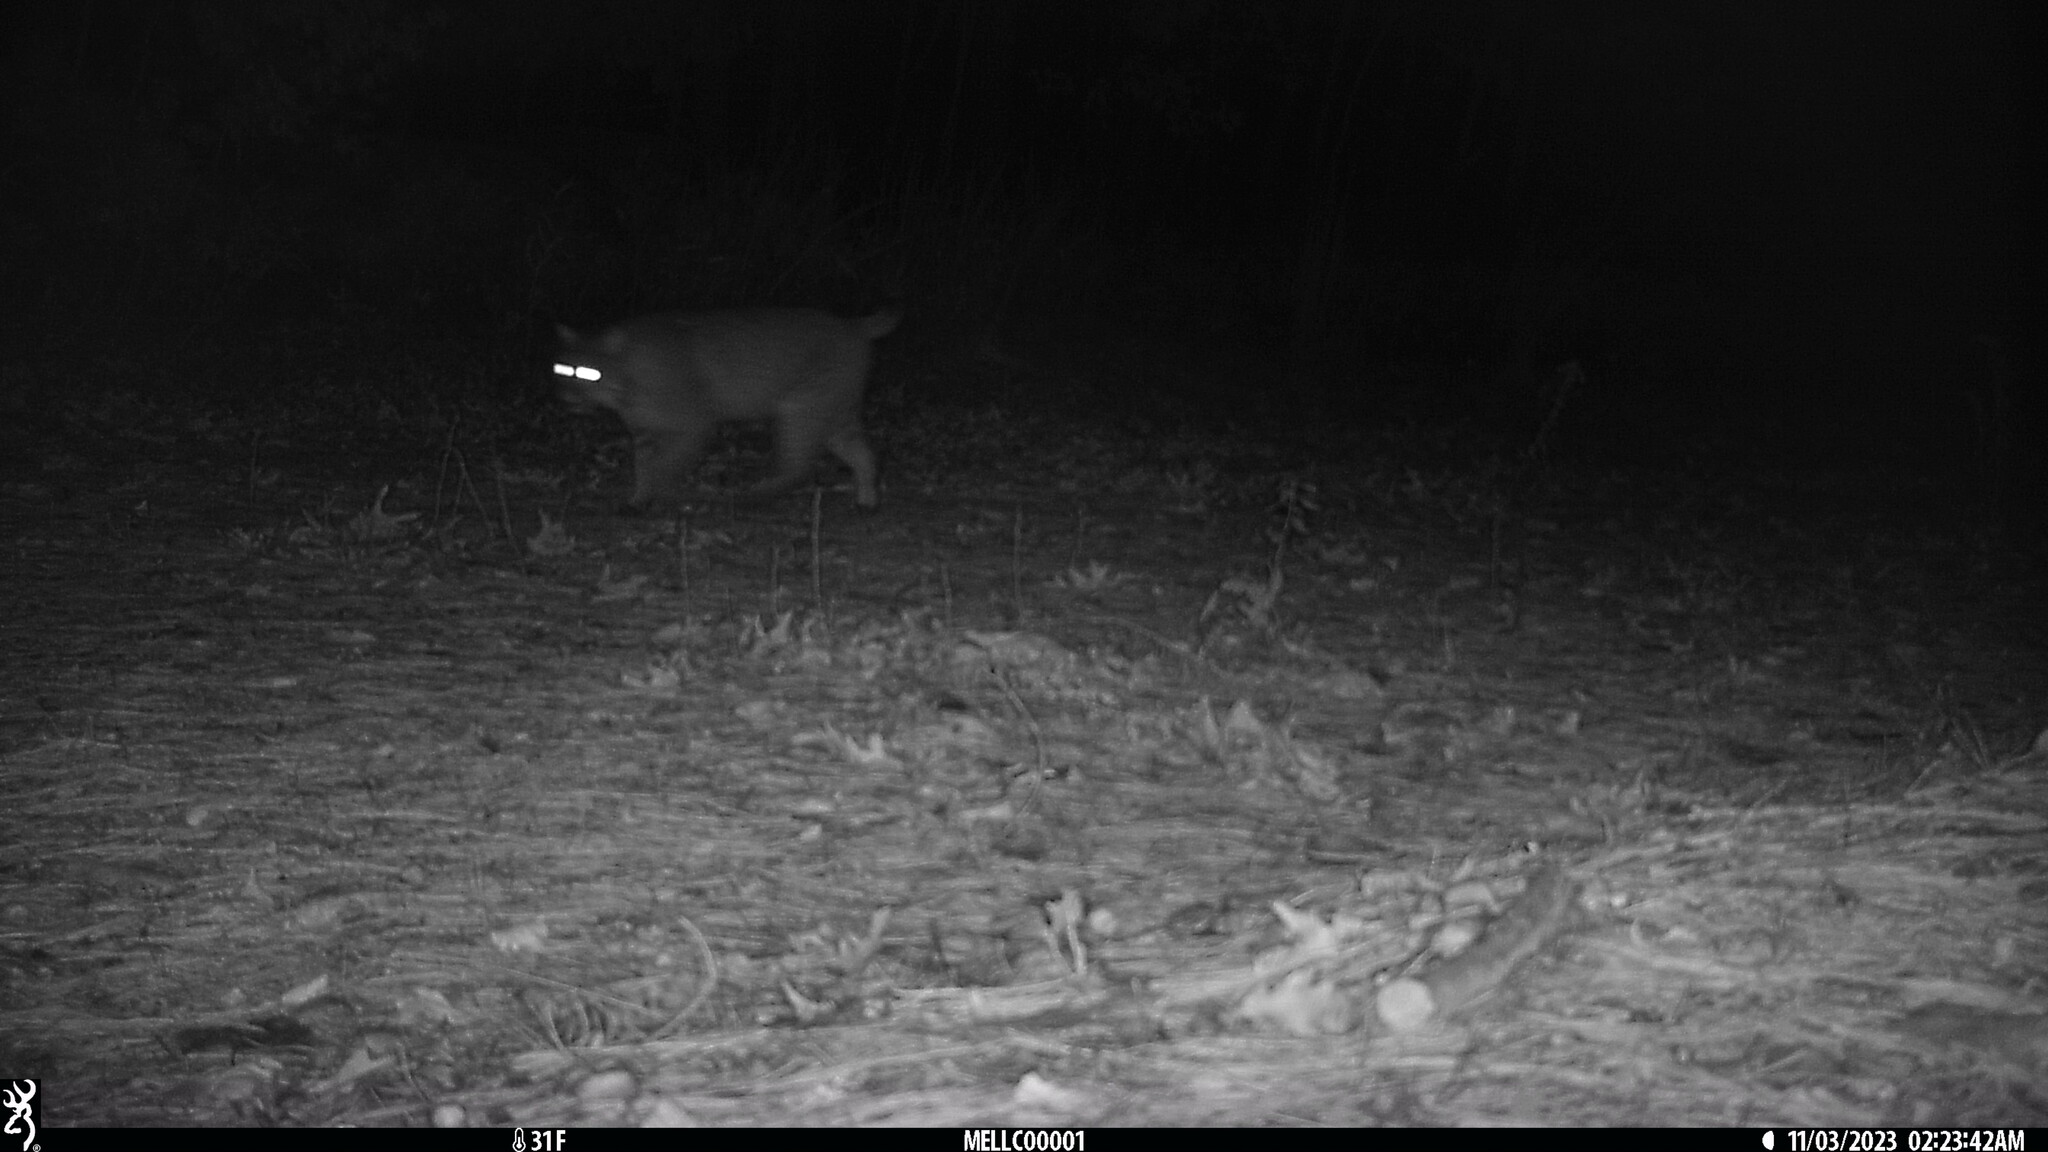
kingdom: Animalia
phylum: Chordata
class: Mammalia
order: Carnivora
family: Felidae
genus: Lynx
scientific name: Lynx rufus
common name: Bobcat
